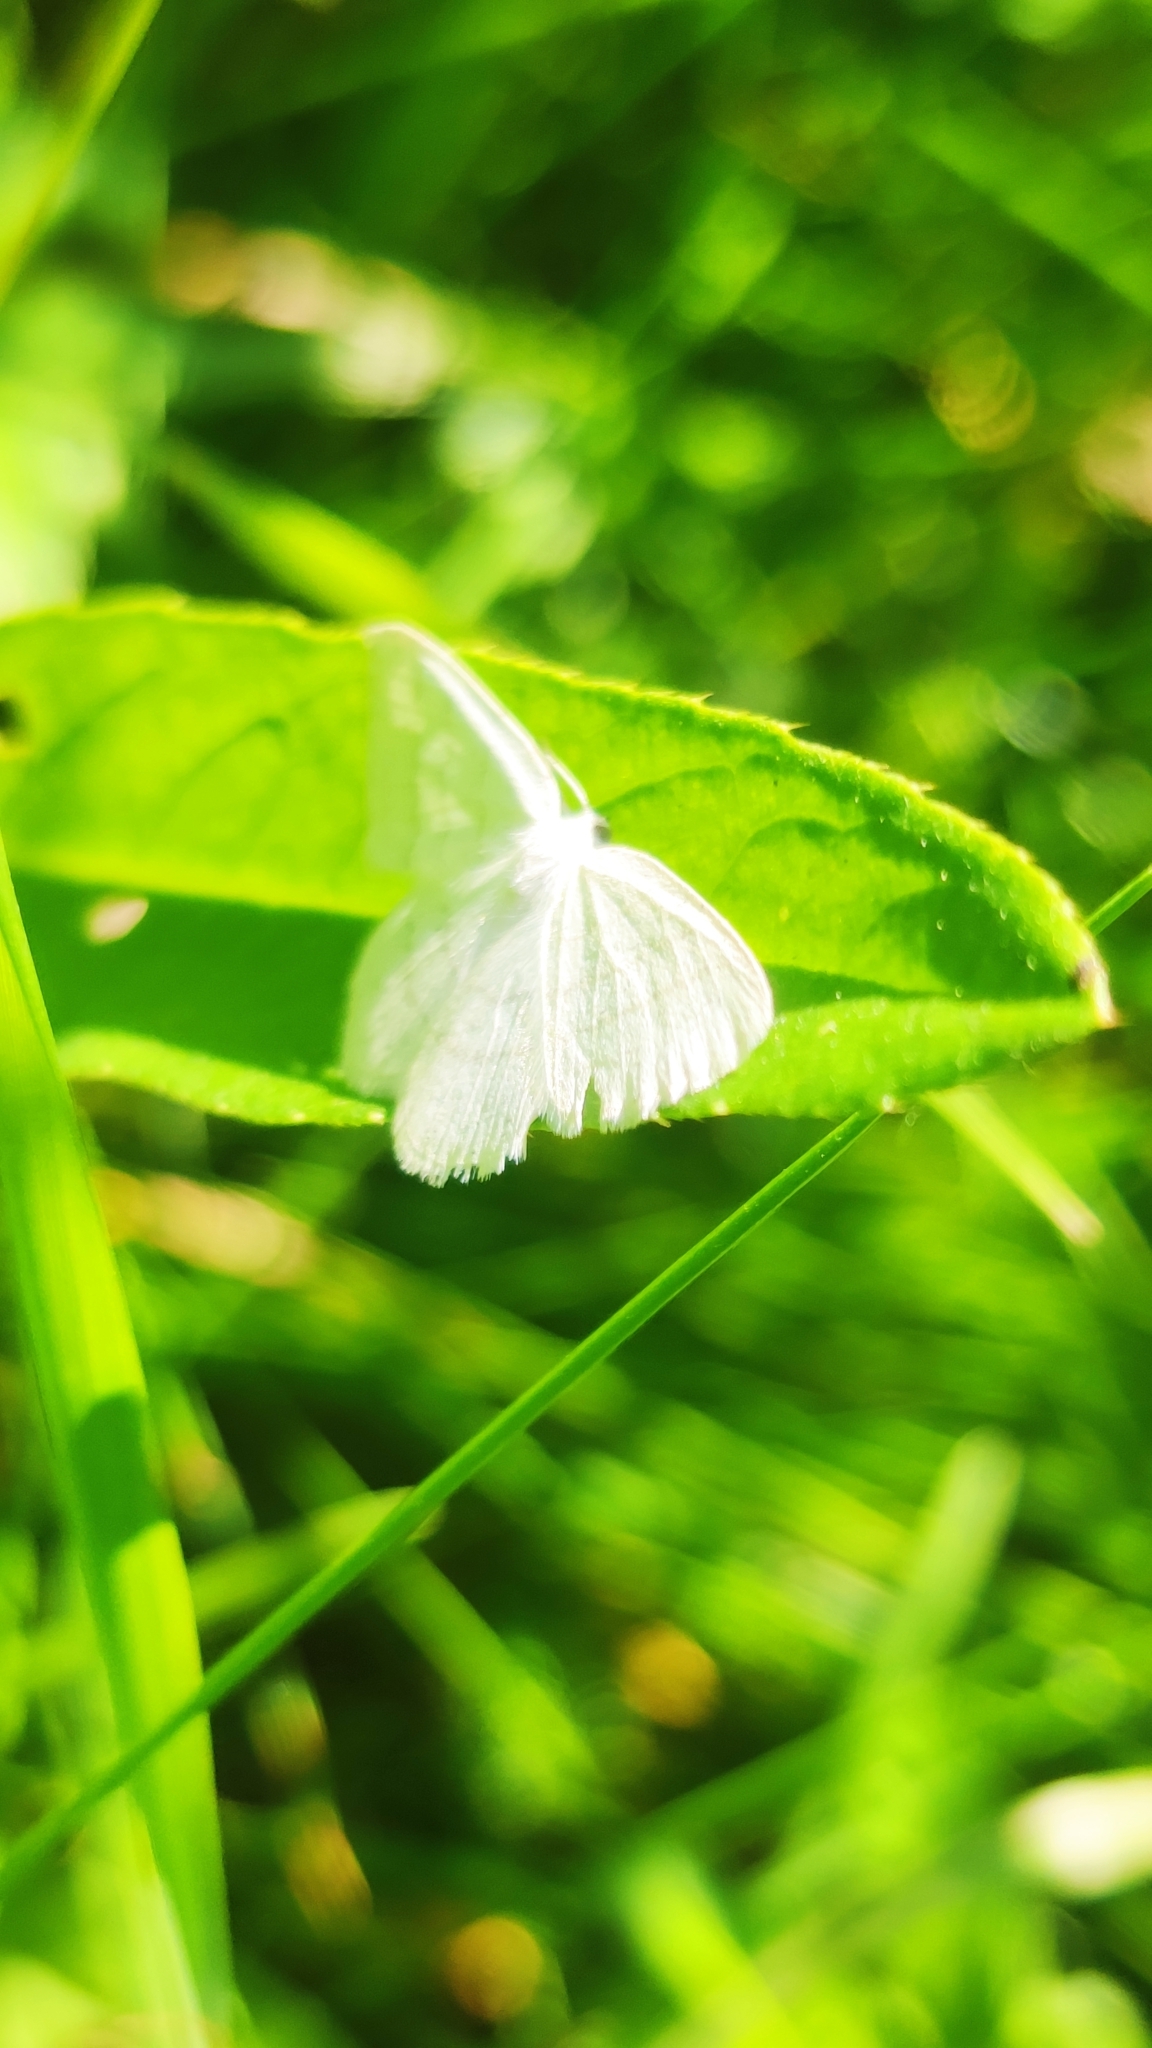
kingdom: Animalia
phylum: Arthropoda
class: Insecta
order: Lepidoptera
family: Geometridae
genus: Cabera
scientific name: Cabera pusaria
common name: Common white wave
